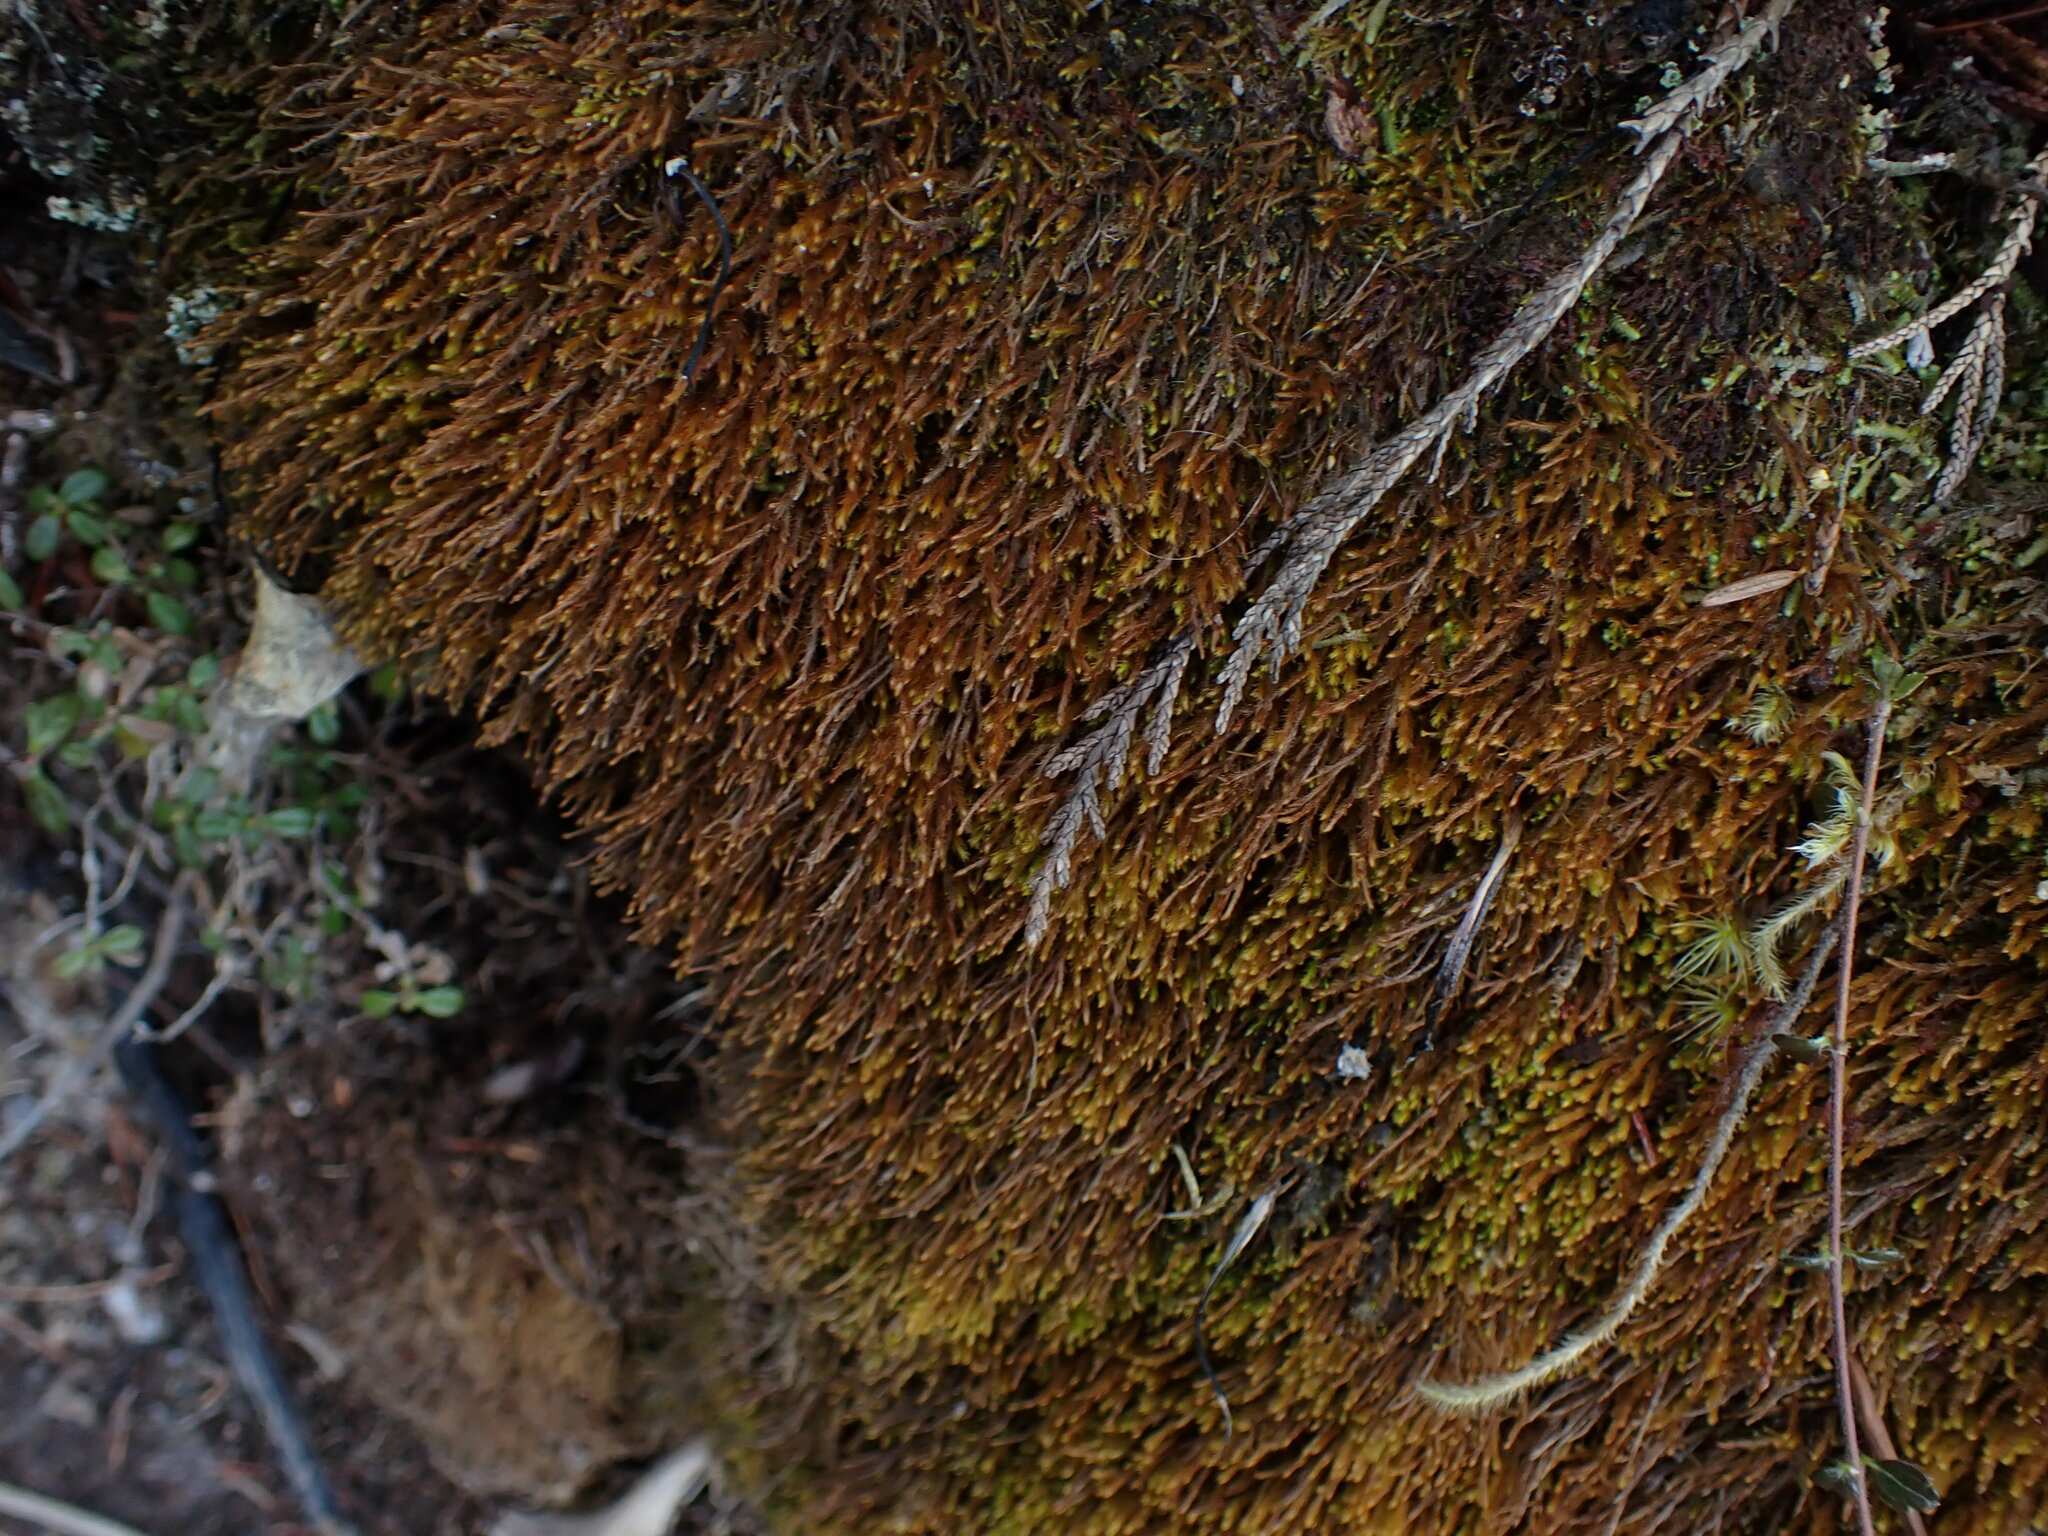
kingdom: Plantae
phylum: Marchantiophyta
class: Jungermanniopsida
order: Jungermanniales
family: Herbertaceae
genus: Herbertus
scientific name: Herbertus aduncus
